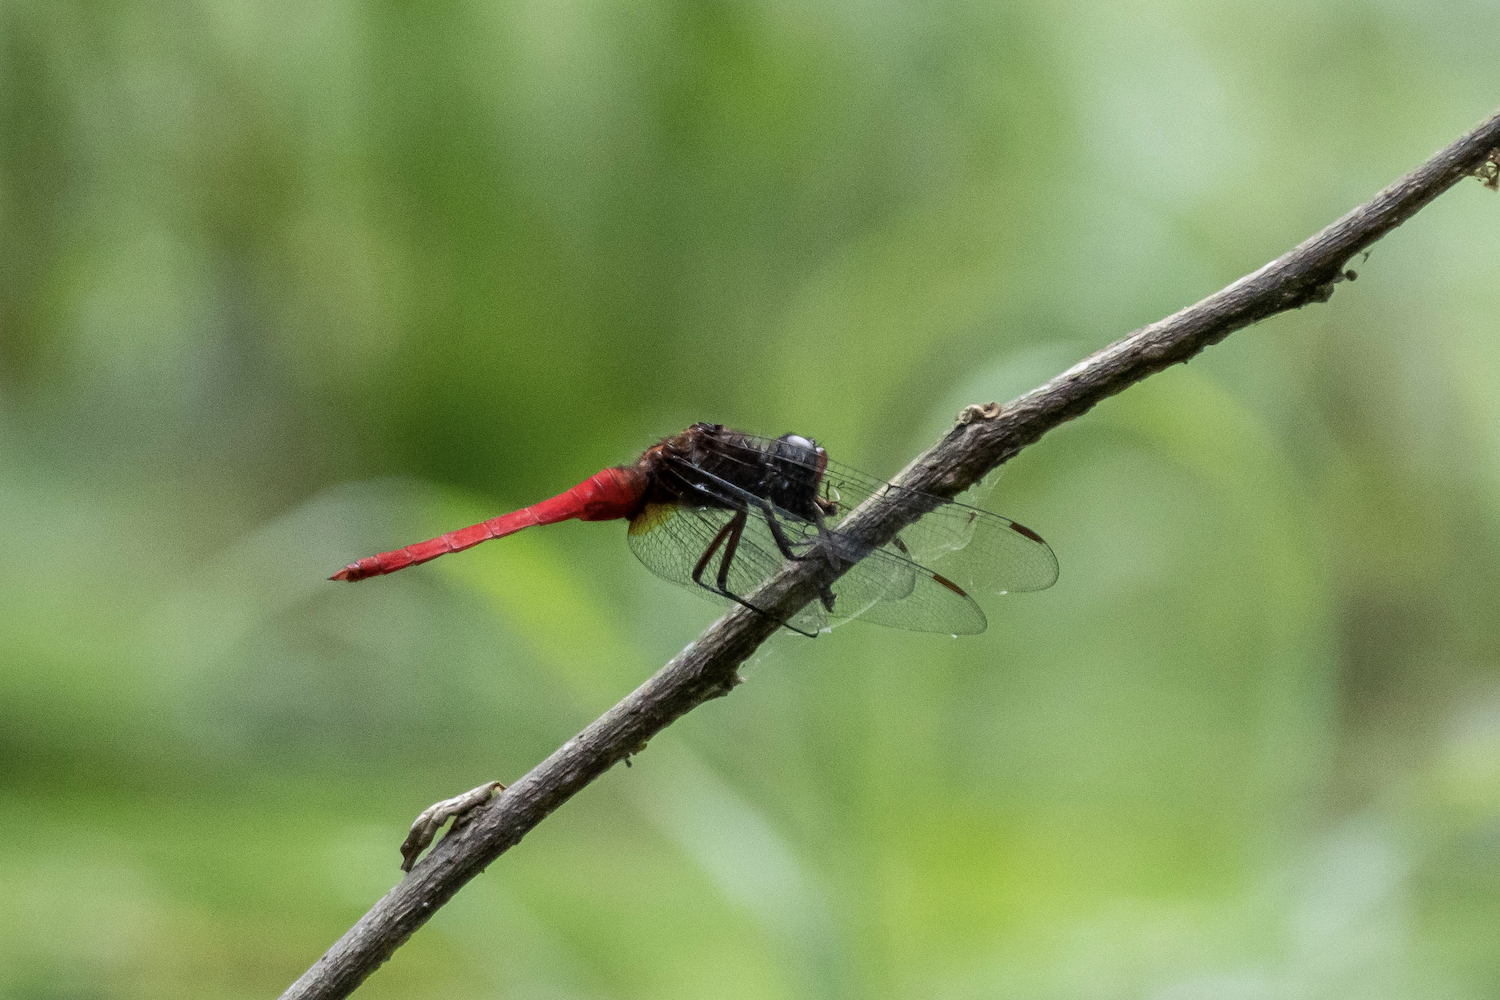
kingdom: Animalia
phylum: Arthropoda
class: Insecta
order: Odonata
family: Libellulidae
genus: Orthetrum
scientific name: Orthetrum chrysis
